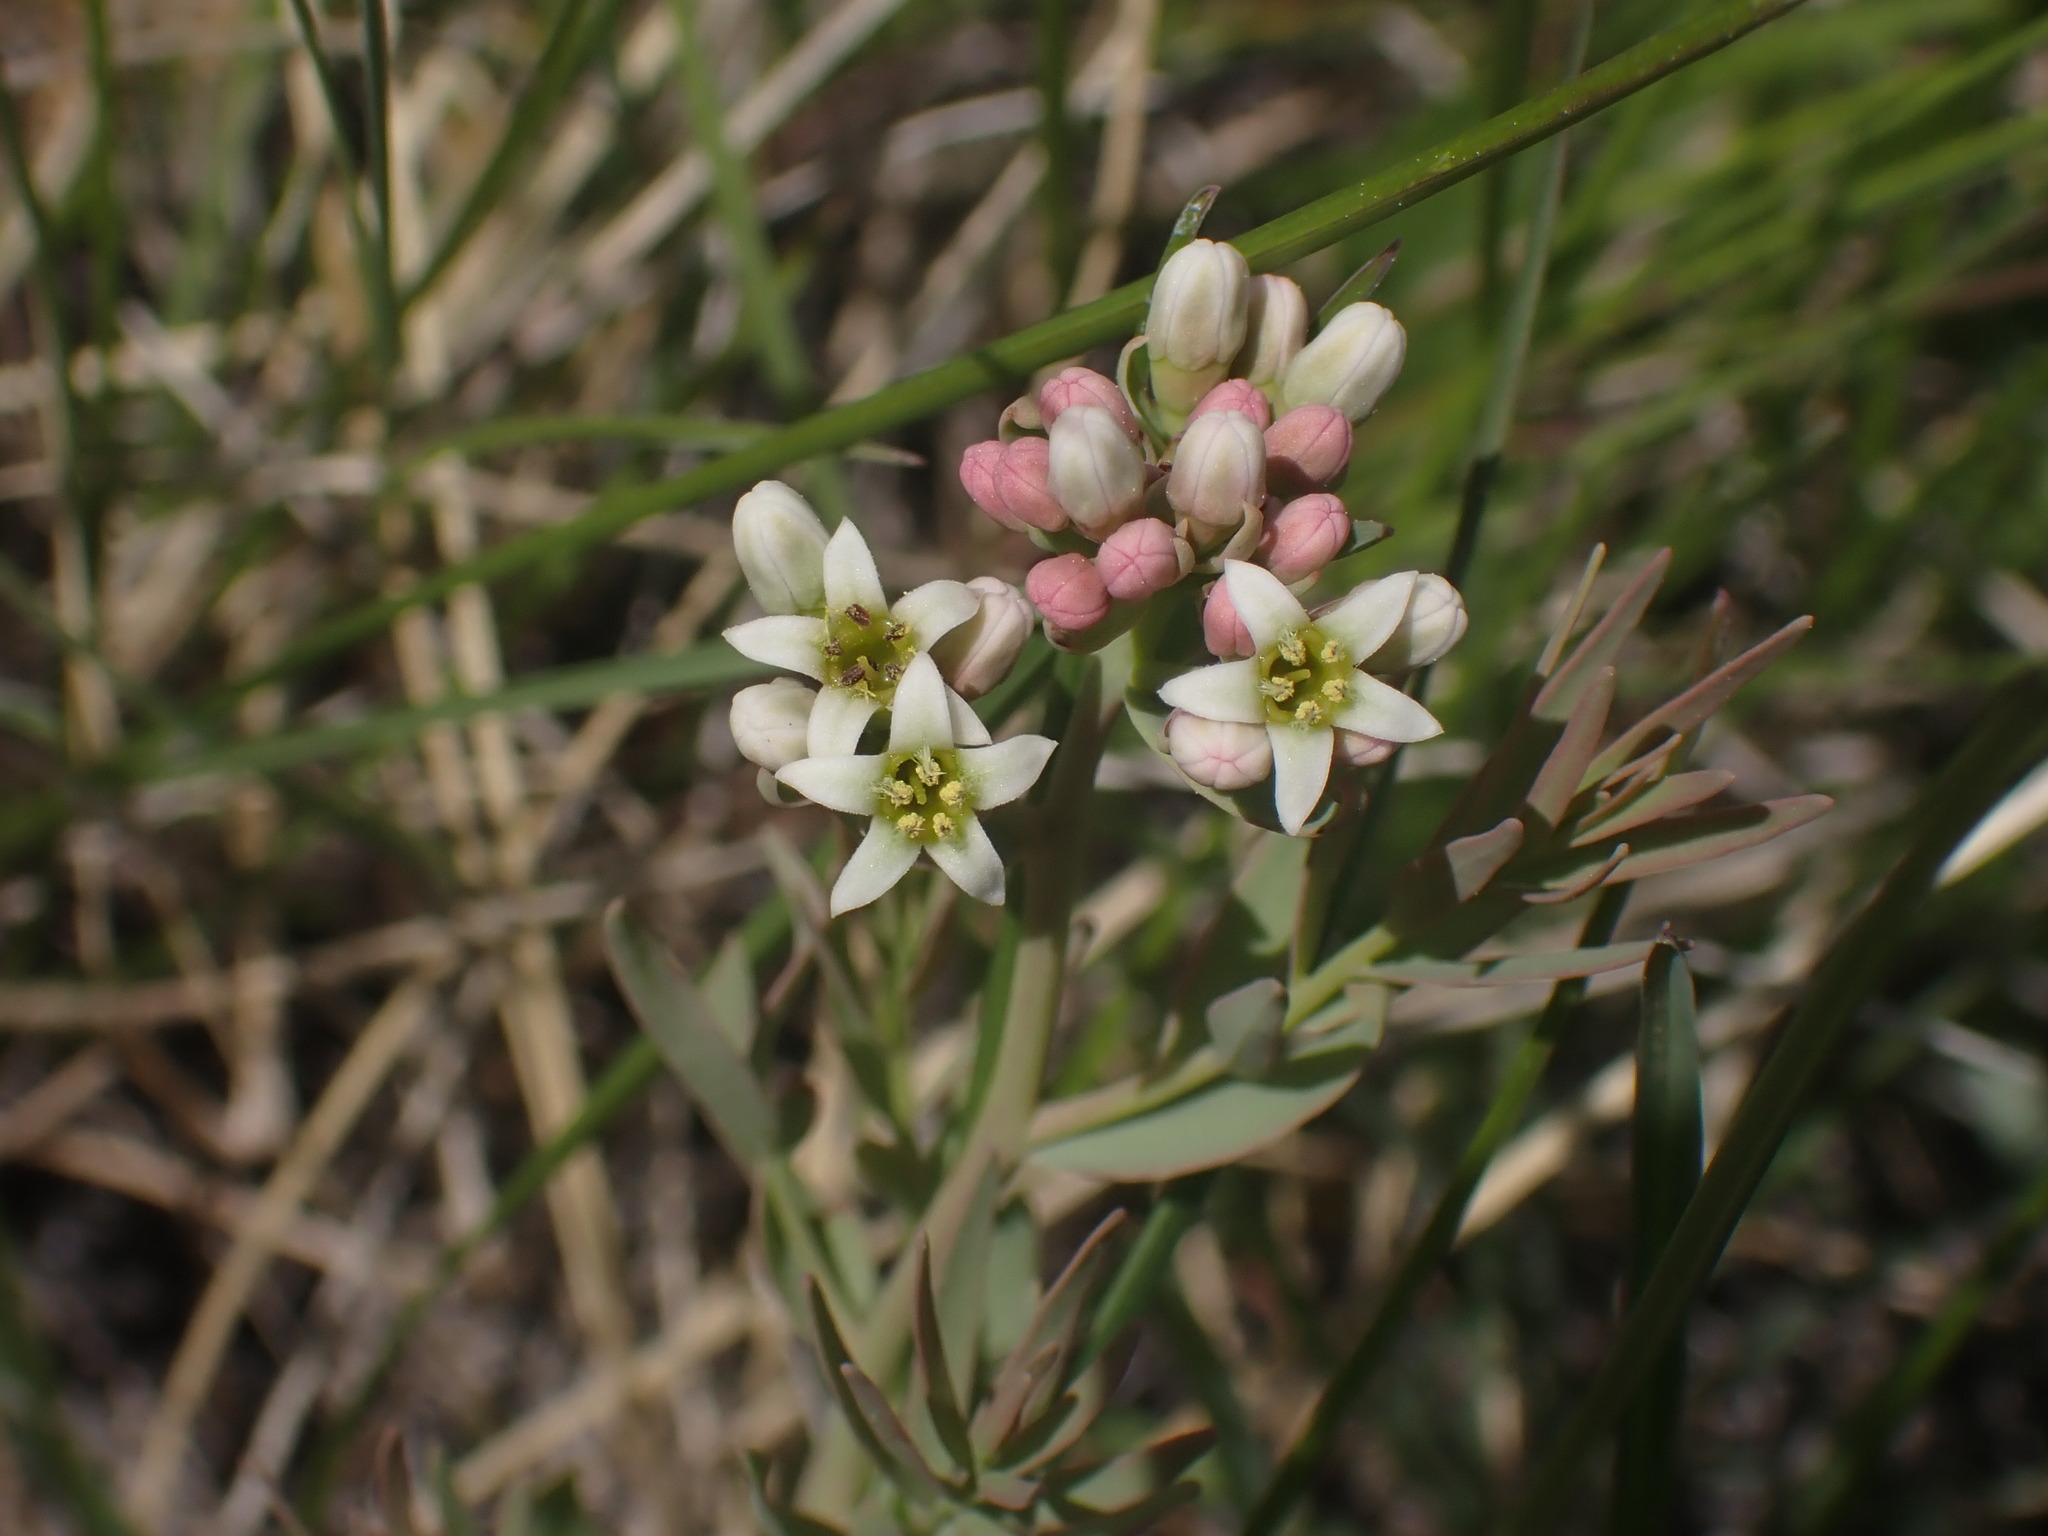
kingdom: Plantae
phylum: Tracheophyta
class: Magnoliopsida
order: Santalales
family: Comandraceae
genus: Comandra
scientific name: Comandra umbellata
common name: Bastard toadflax
